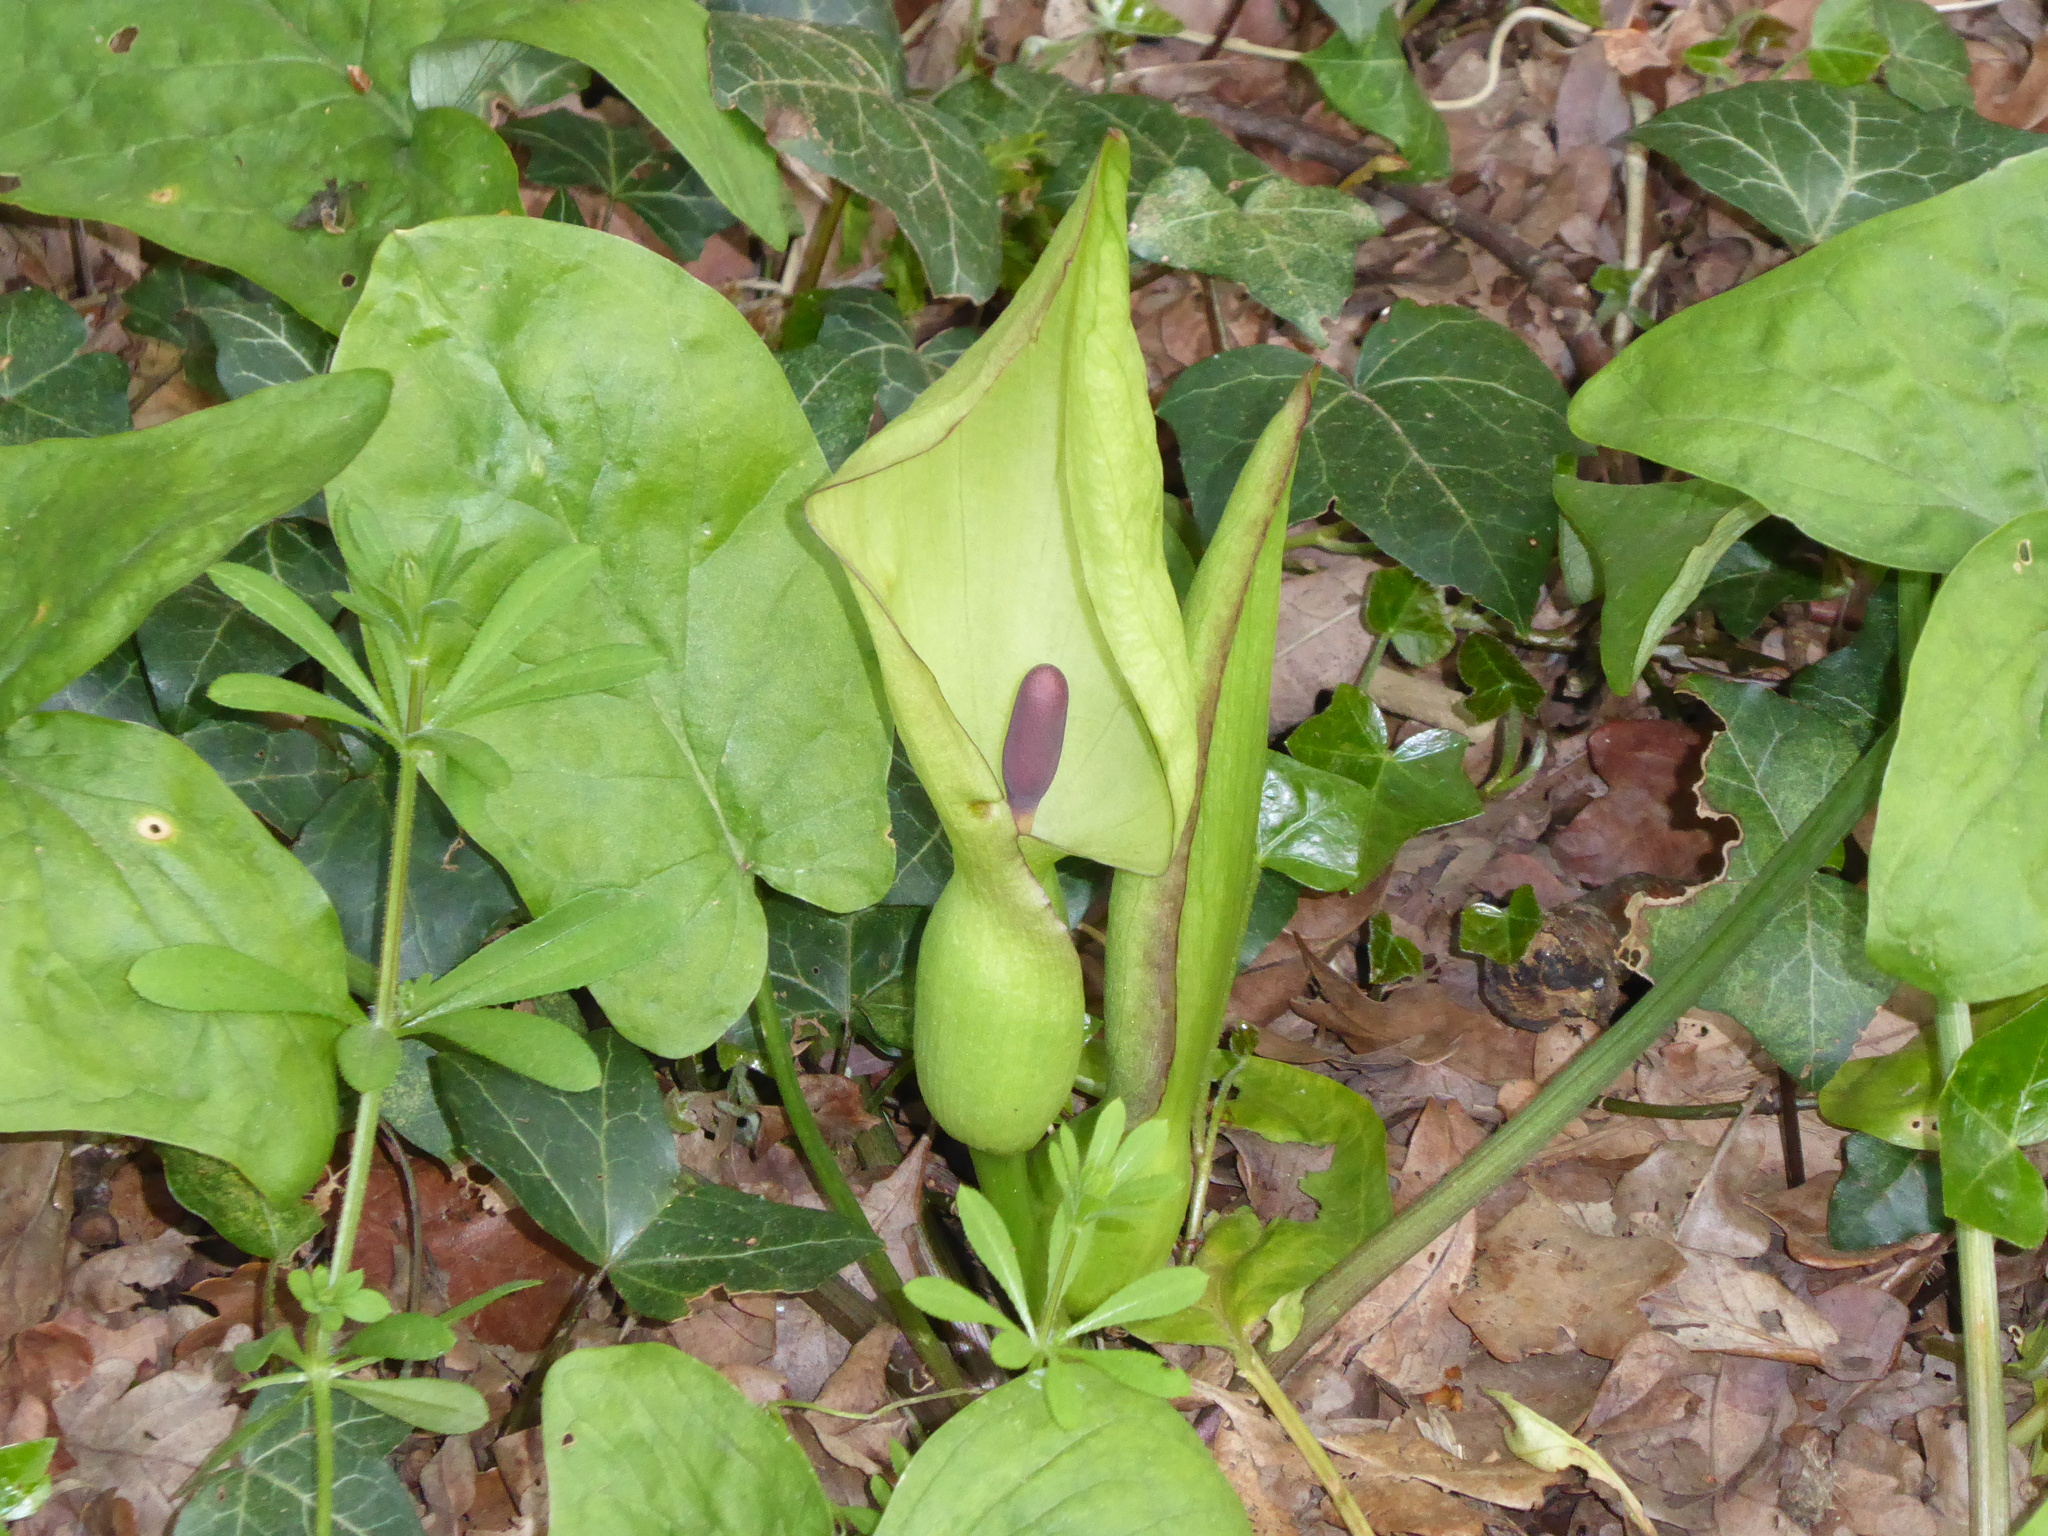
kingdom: Plantae
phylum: Tracheophyta
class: Liliopsida
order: Alismatales
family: Araceae
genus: Arum
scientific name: Arum maculatum
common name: Lords-and-ladies
